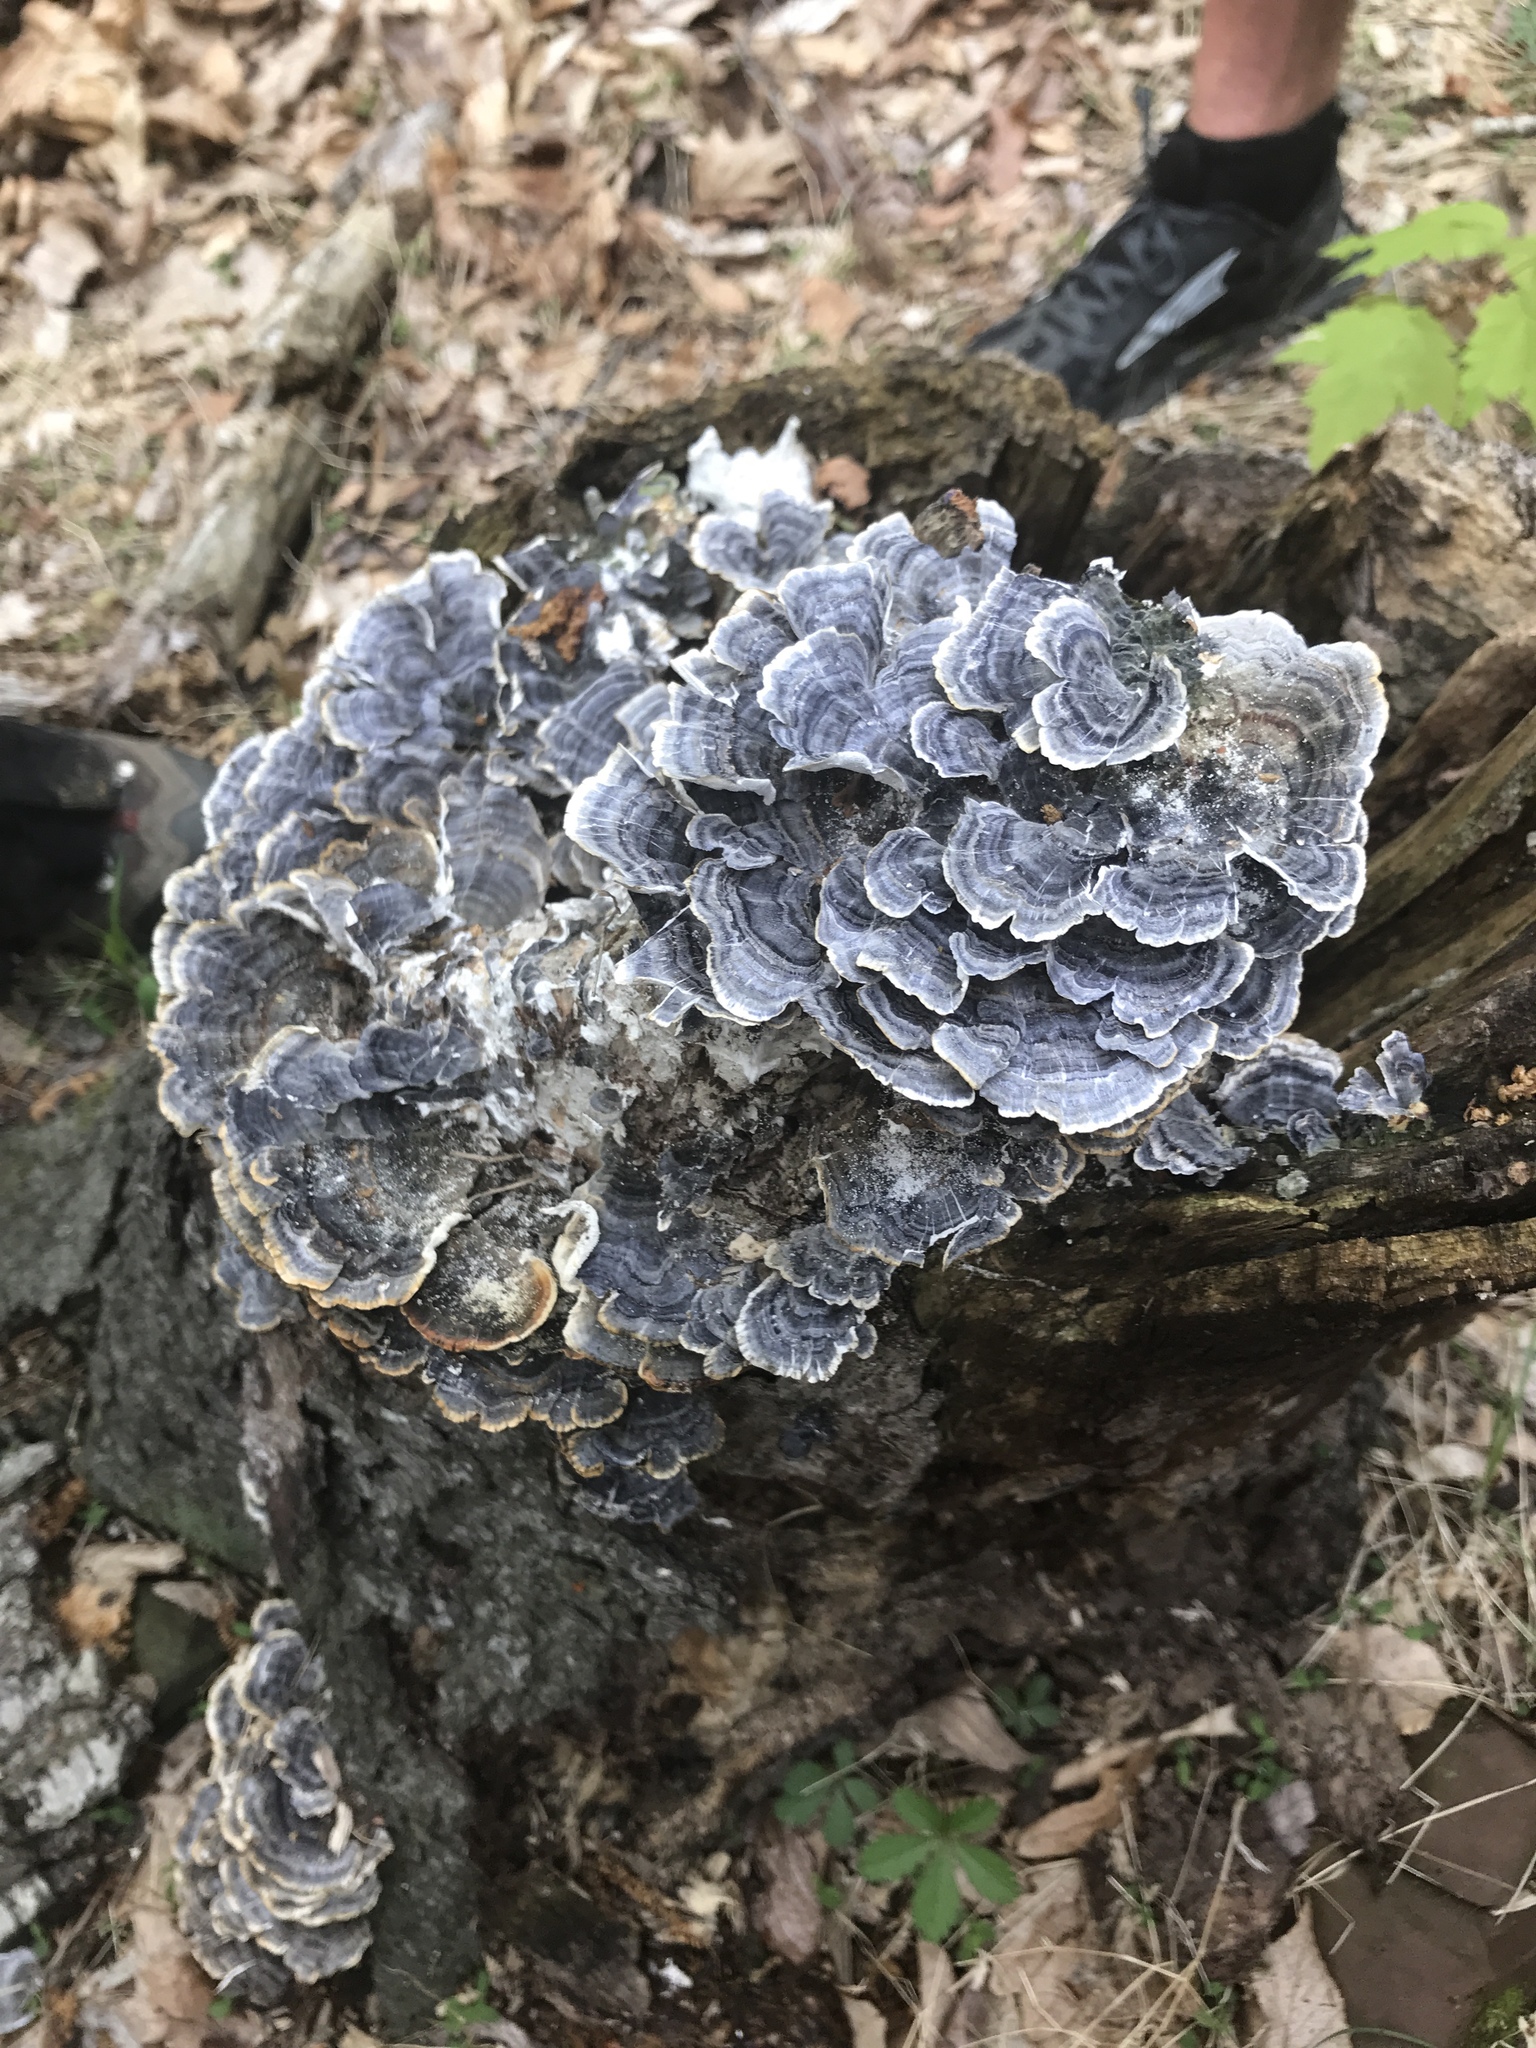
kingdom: Fungi
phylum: Basidiomycota
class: Agaricomycetes
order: Polyporales
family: Polyporaceae
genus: Trametes
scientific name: Trametes versicolor
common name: Turkeytail
